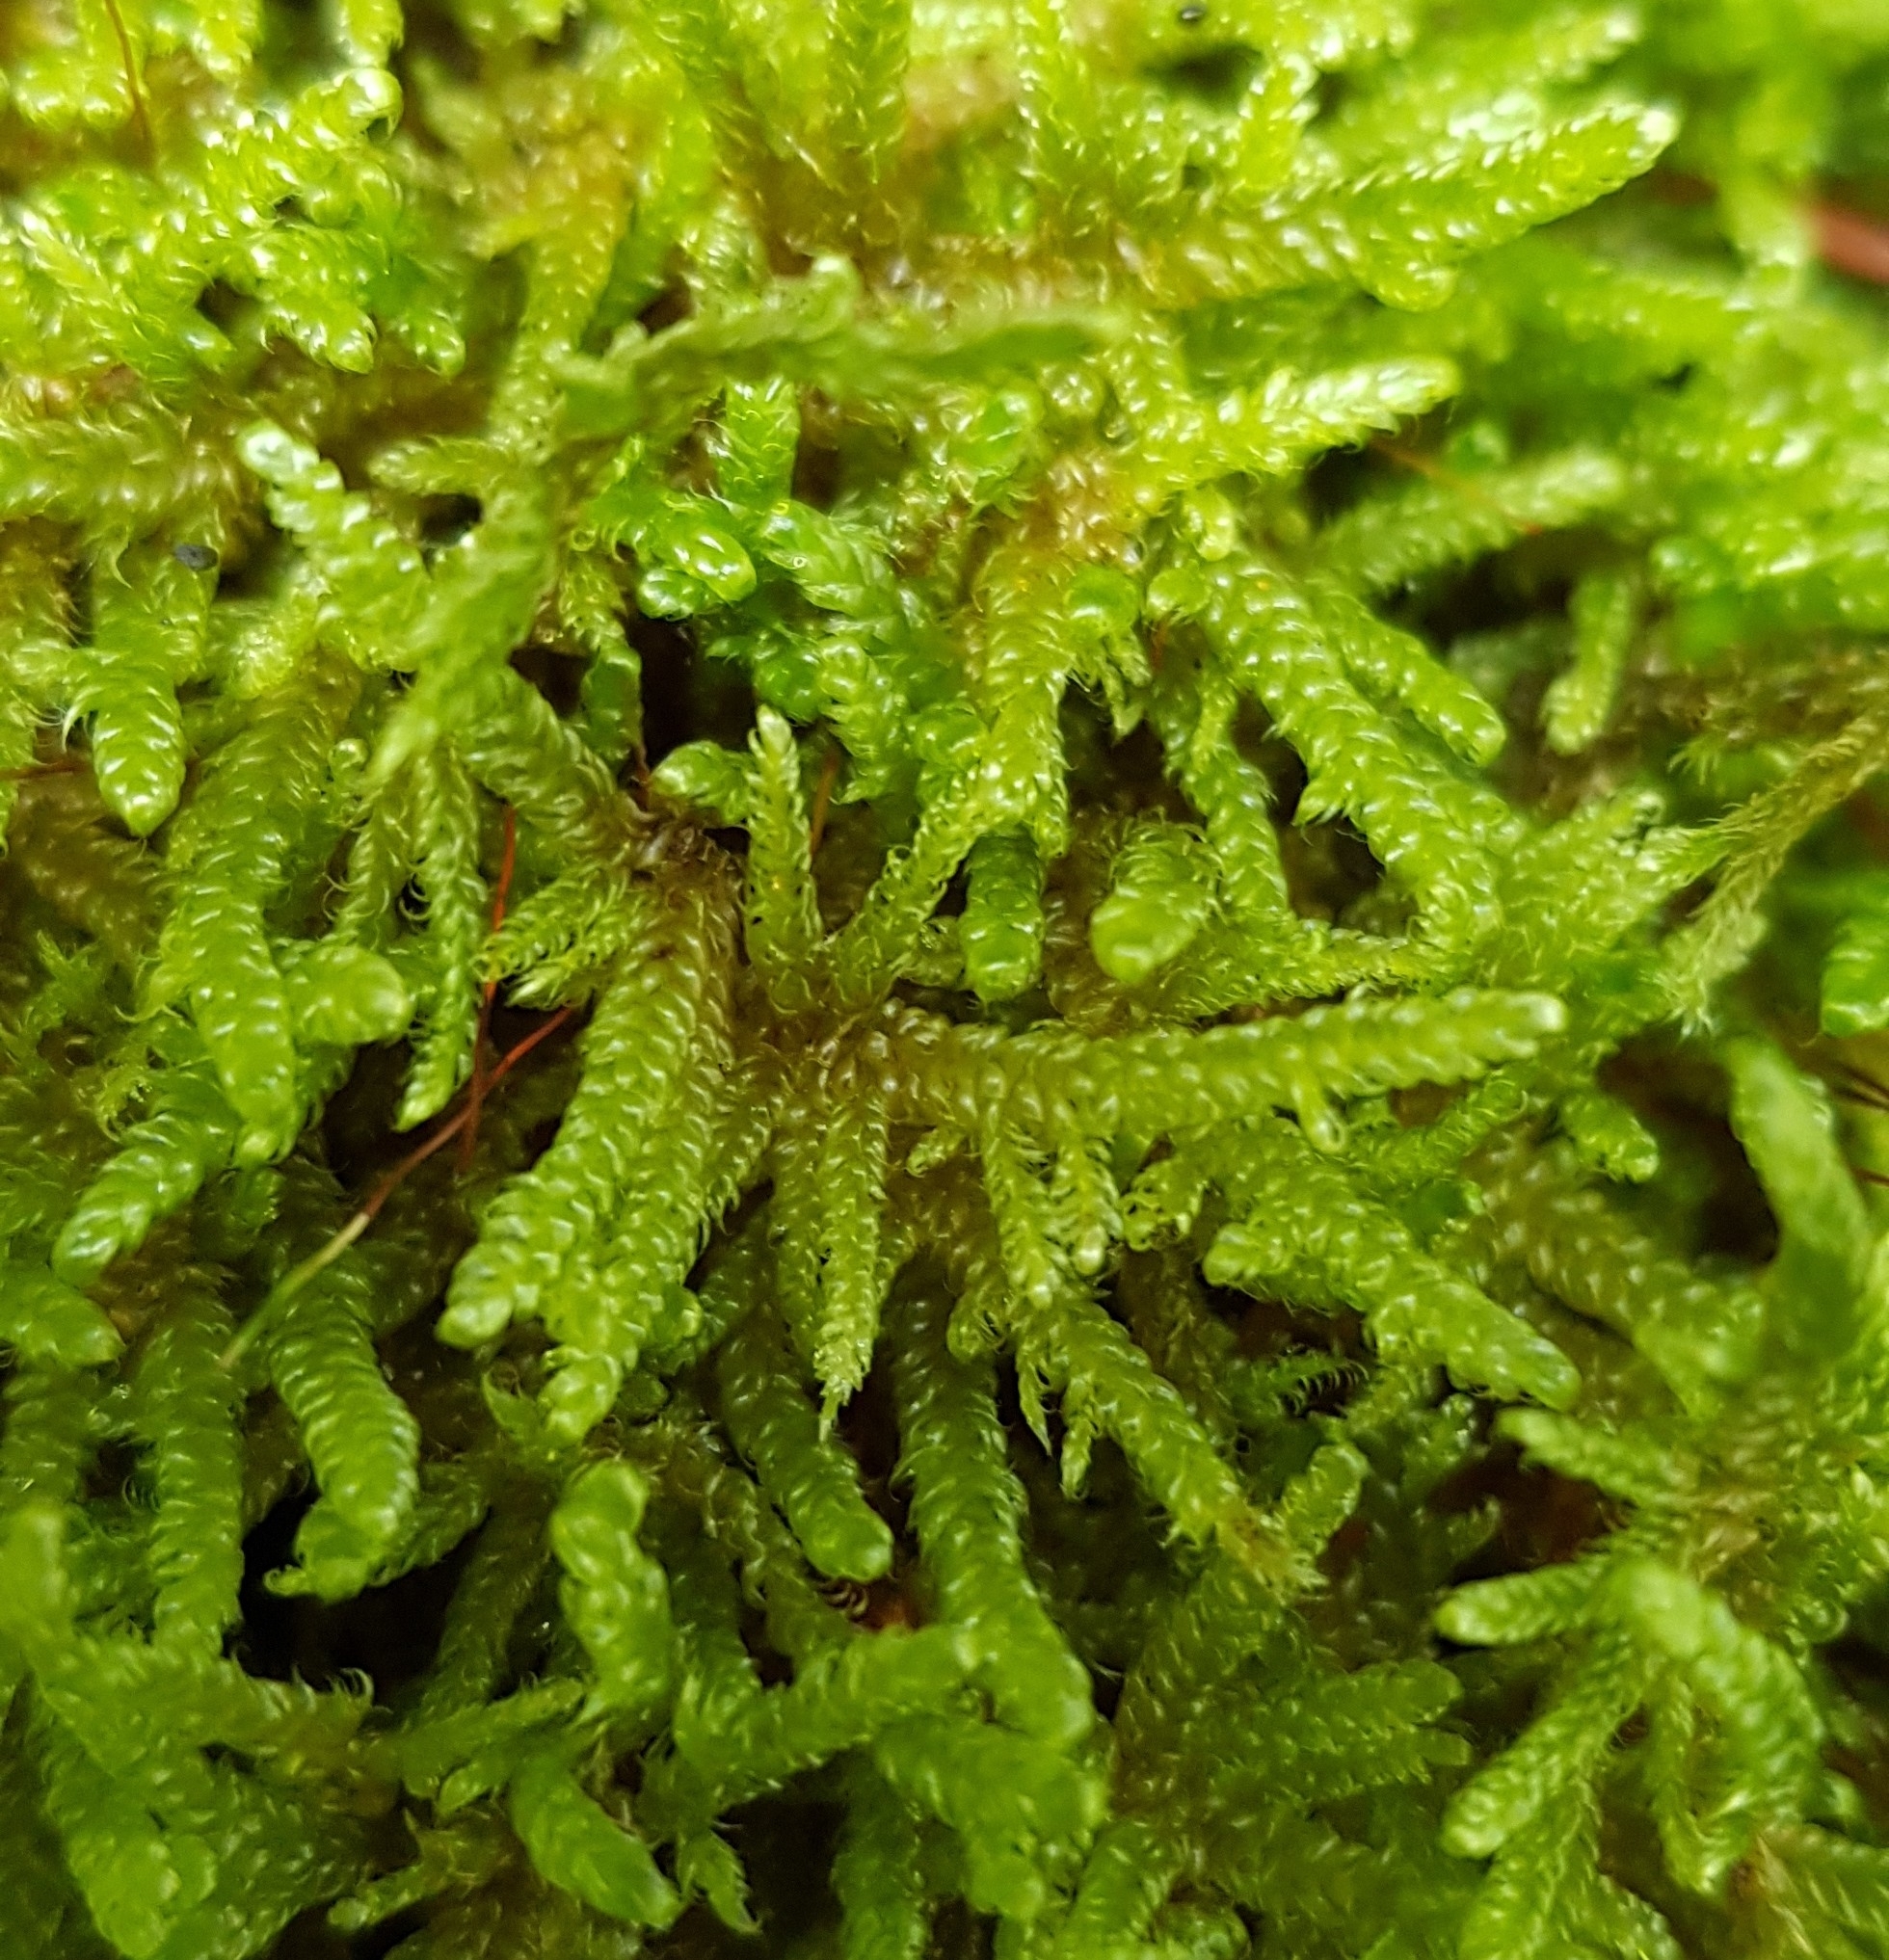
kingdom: Plantae
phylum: Bryophyta
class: Bryopsida
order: Hypnales
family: Hypnaceae
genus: Hypnum
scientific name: Hypnum cupressiforme
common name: Cypress-leaved plait-moss
